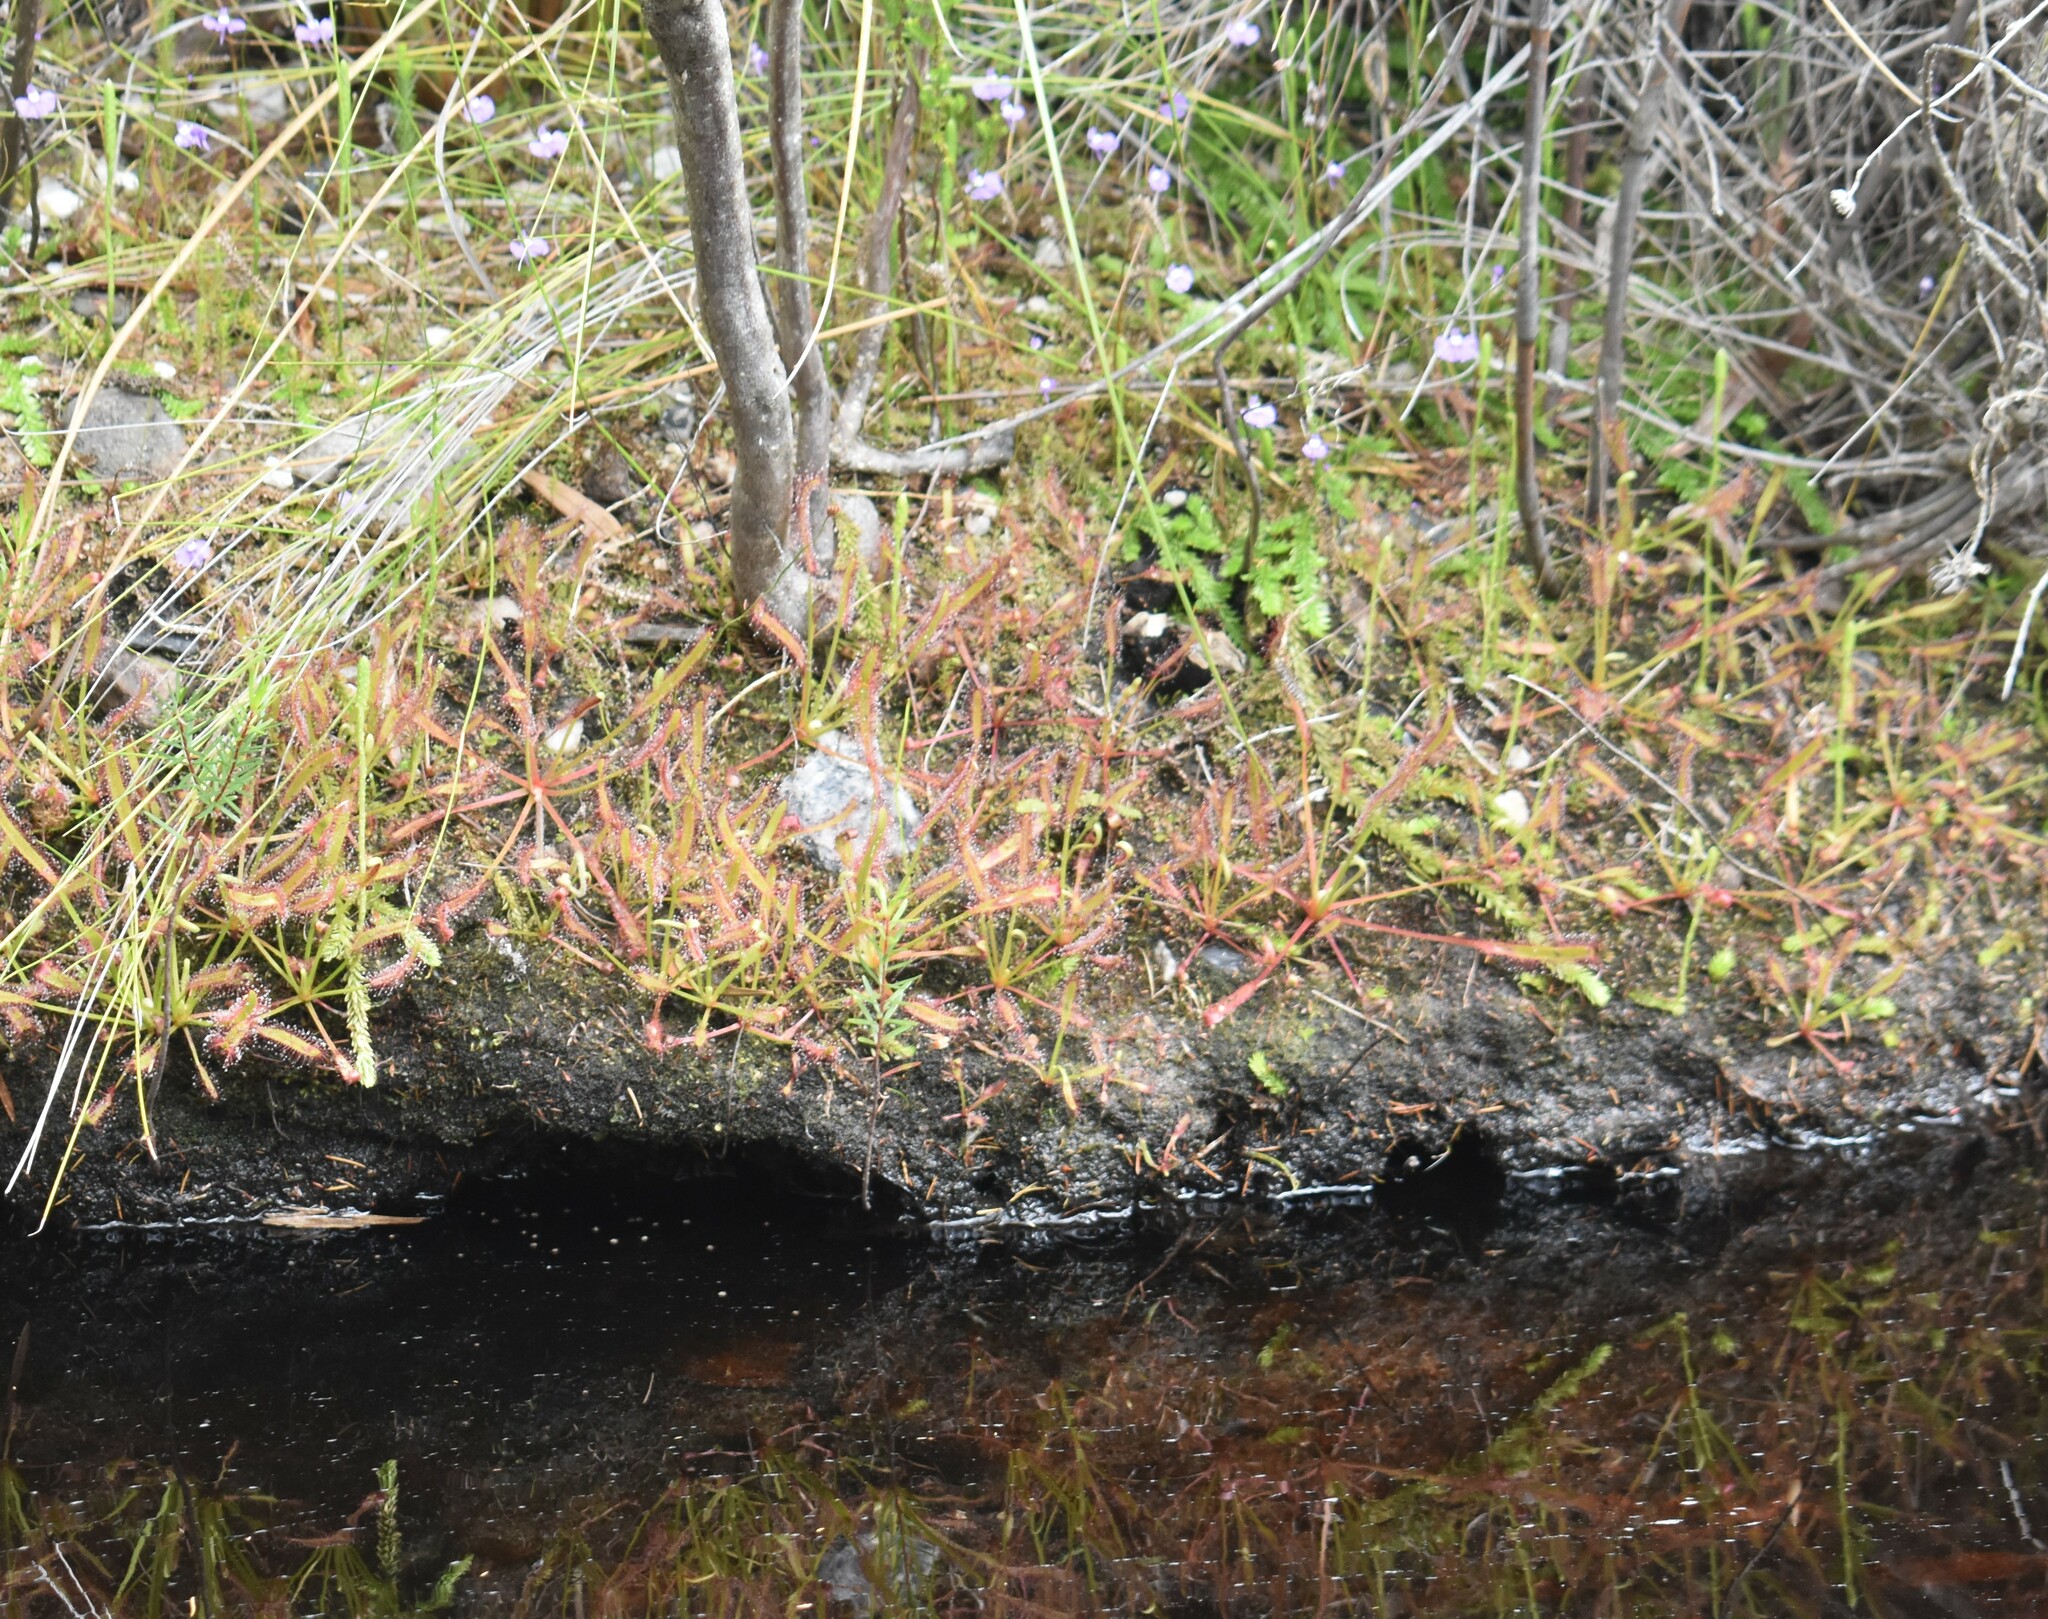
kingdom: Plantae
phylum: Tracheophyta
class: Magnoliopsida
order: Caryophyllales
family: Droseraceae
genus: Drosera
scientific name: Drosera capensis
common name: Cape sundew
